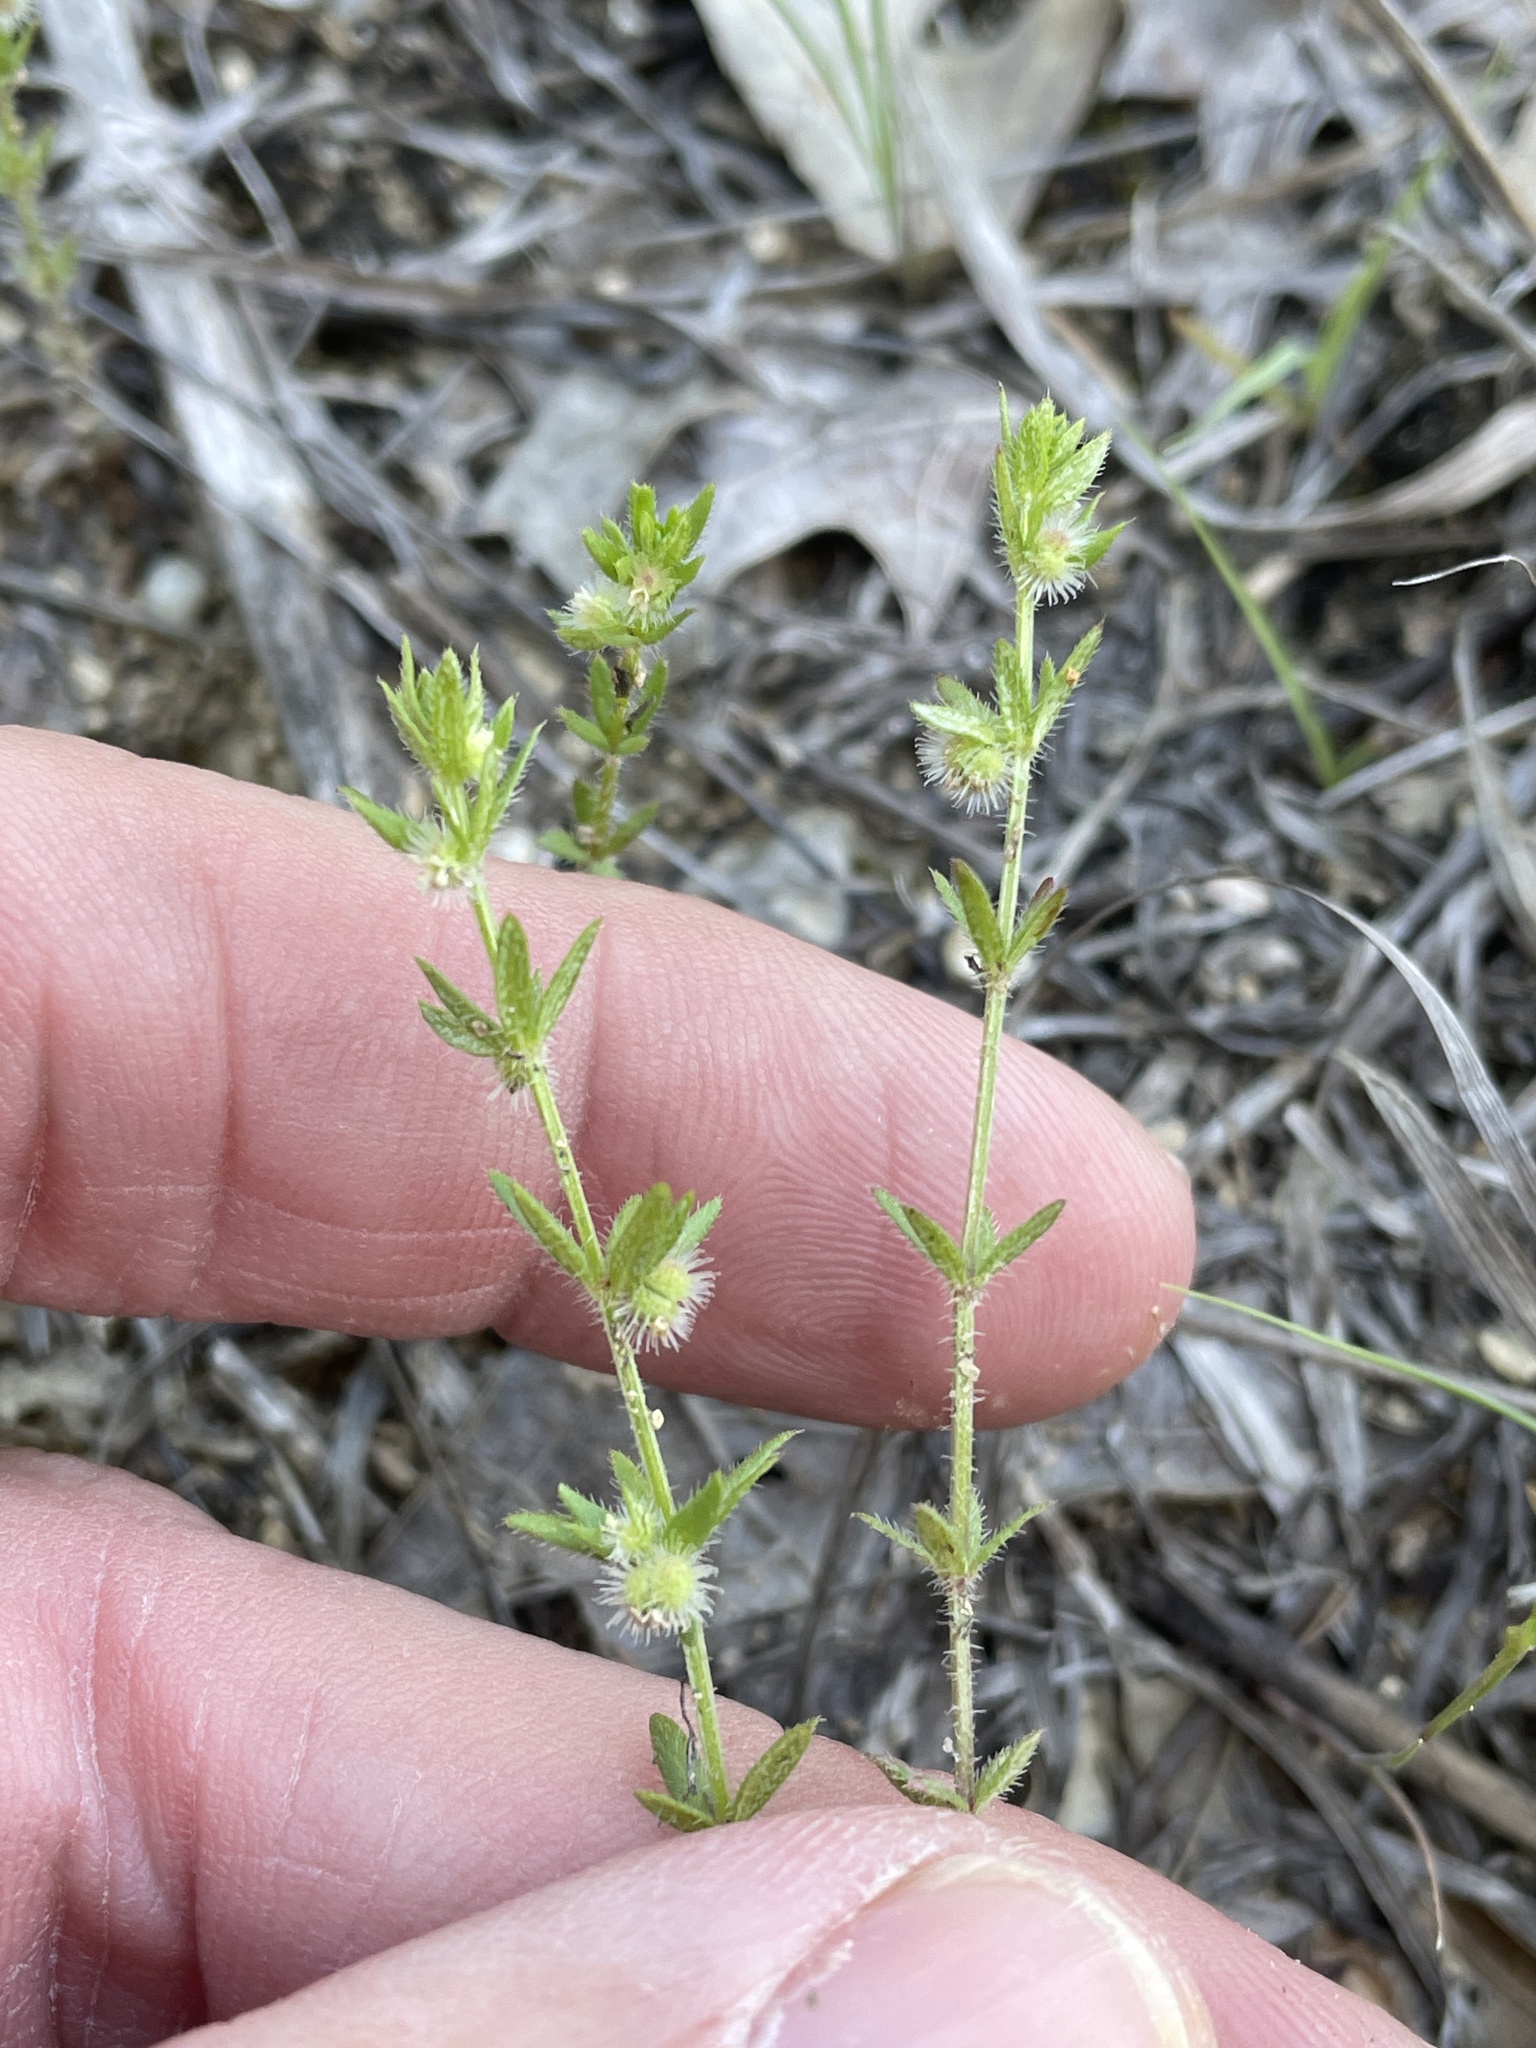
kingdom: Plantae
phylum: Tracheophyta
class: Magnoliopsida
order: Gentianales
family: Rubiaceae
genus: Galium
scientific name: Galium virgatum
